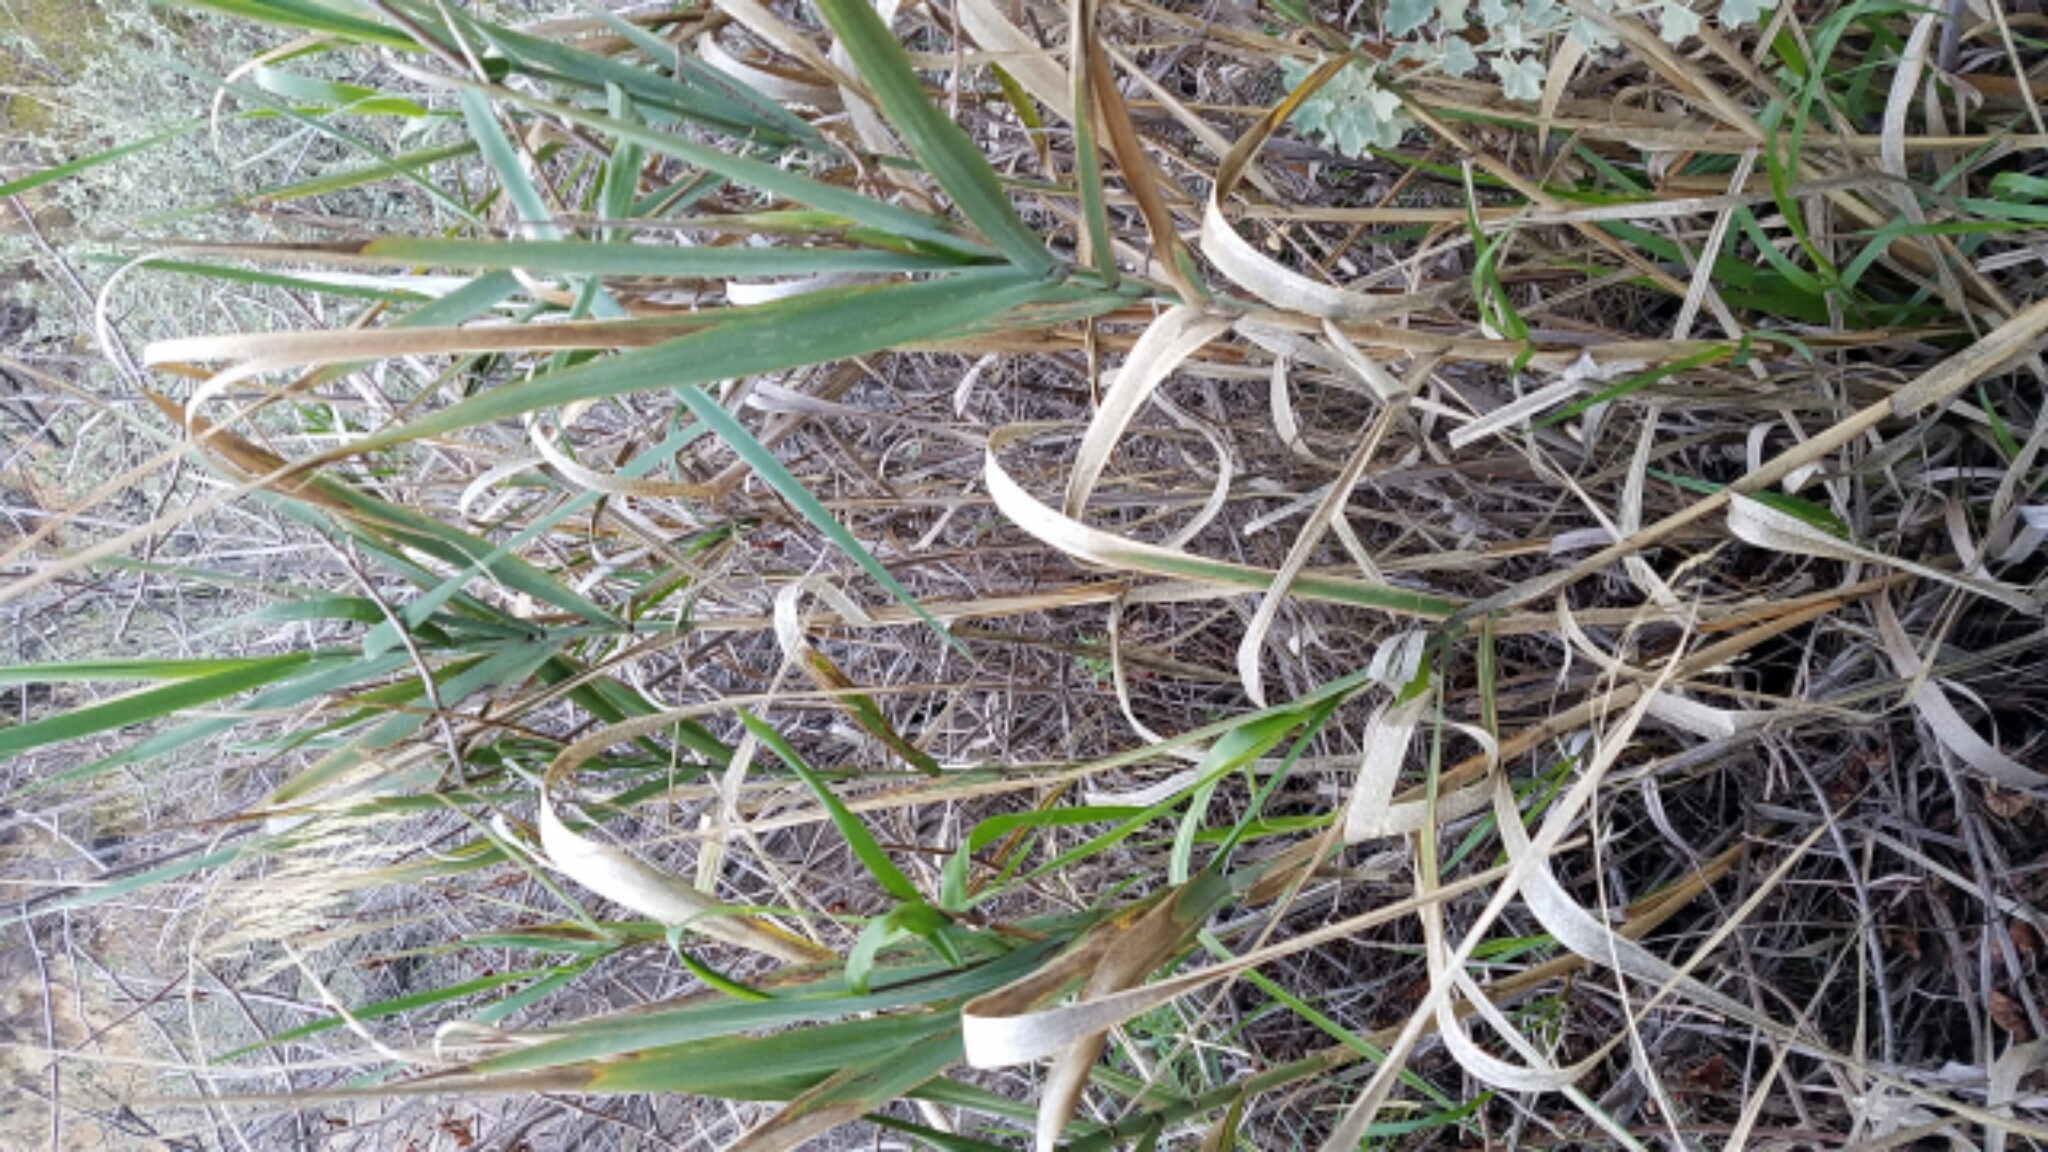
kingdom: Plantae
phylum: Tracheophyta
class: Liliopsida
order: Poales
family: Poaceae
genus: Leymus
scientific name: Leymus condensatus
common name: Giant wild rye
